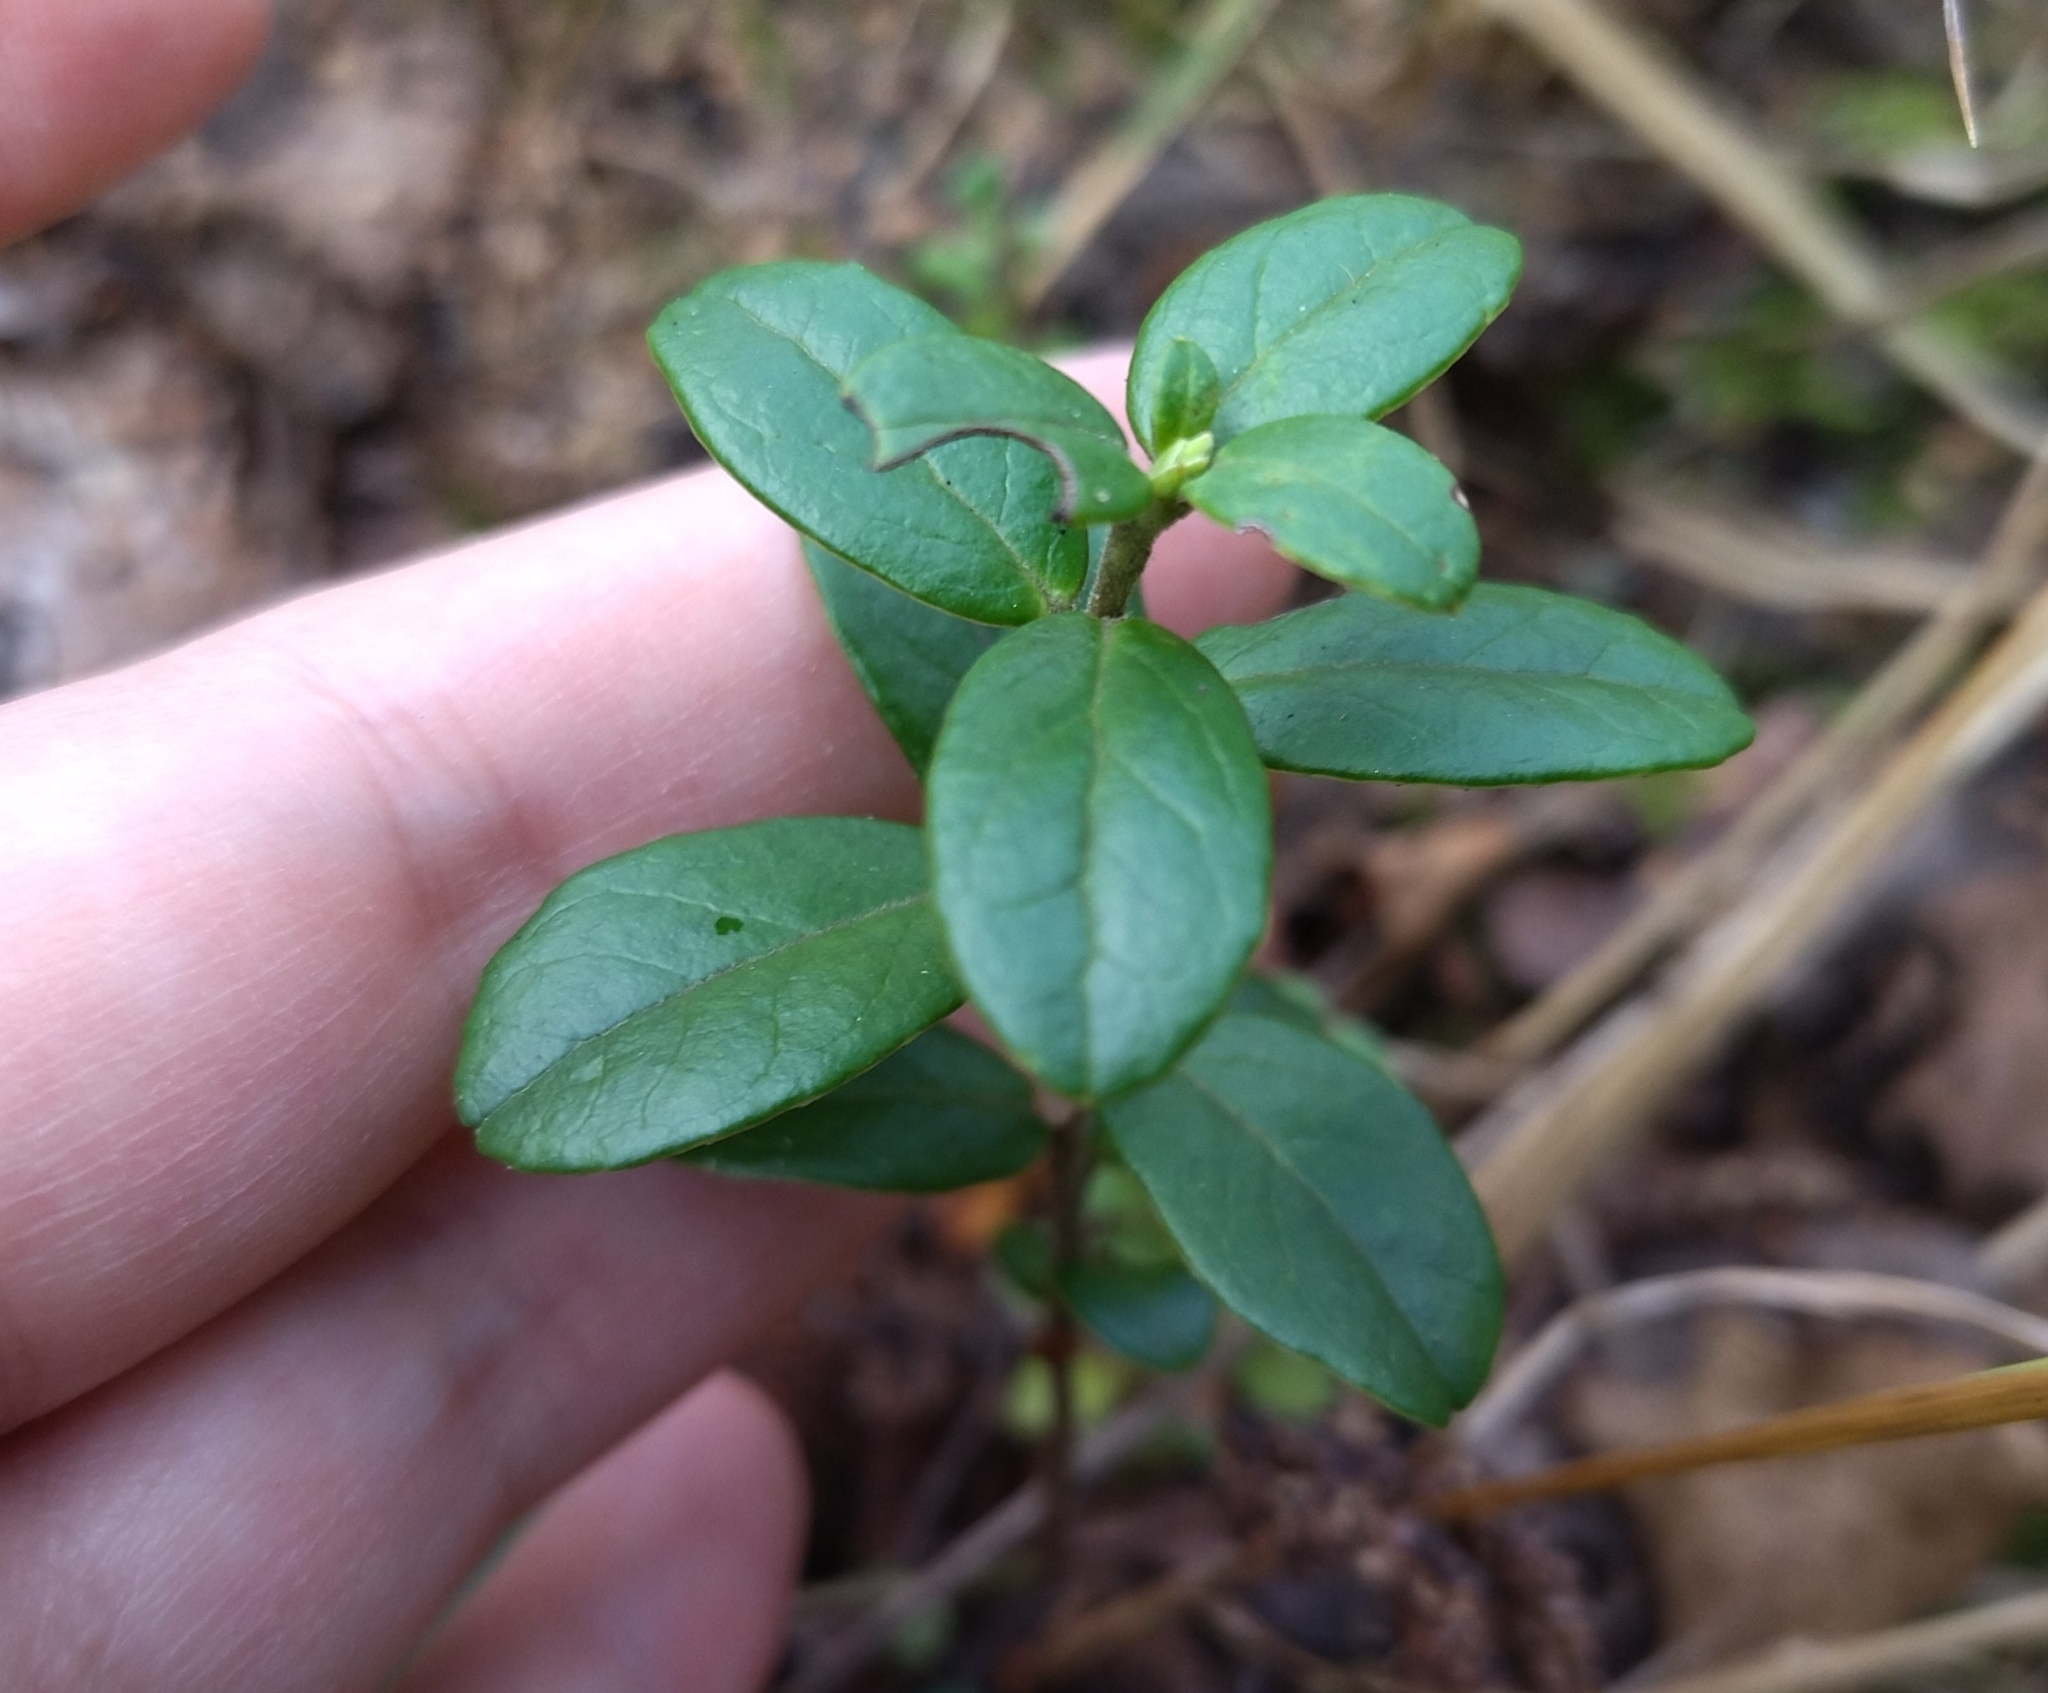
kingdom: Plantae
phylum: Tracheophyta
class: Magnoliopsida
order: Ericales
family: Ericaceae
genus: Vaccinium
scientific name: Vaccinium vitis-idaea
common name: Cowberry
